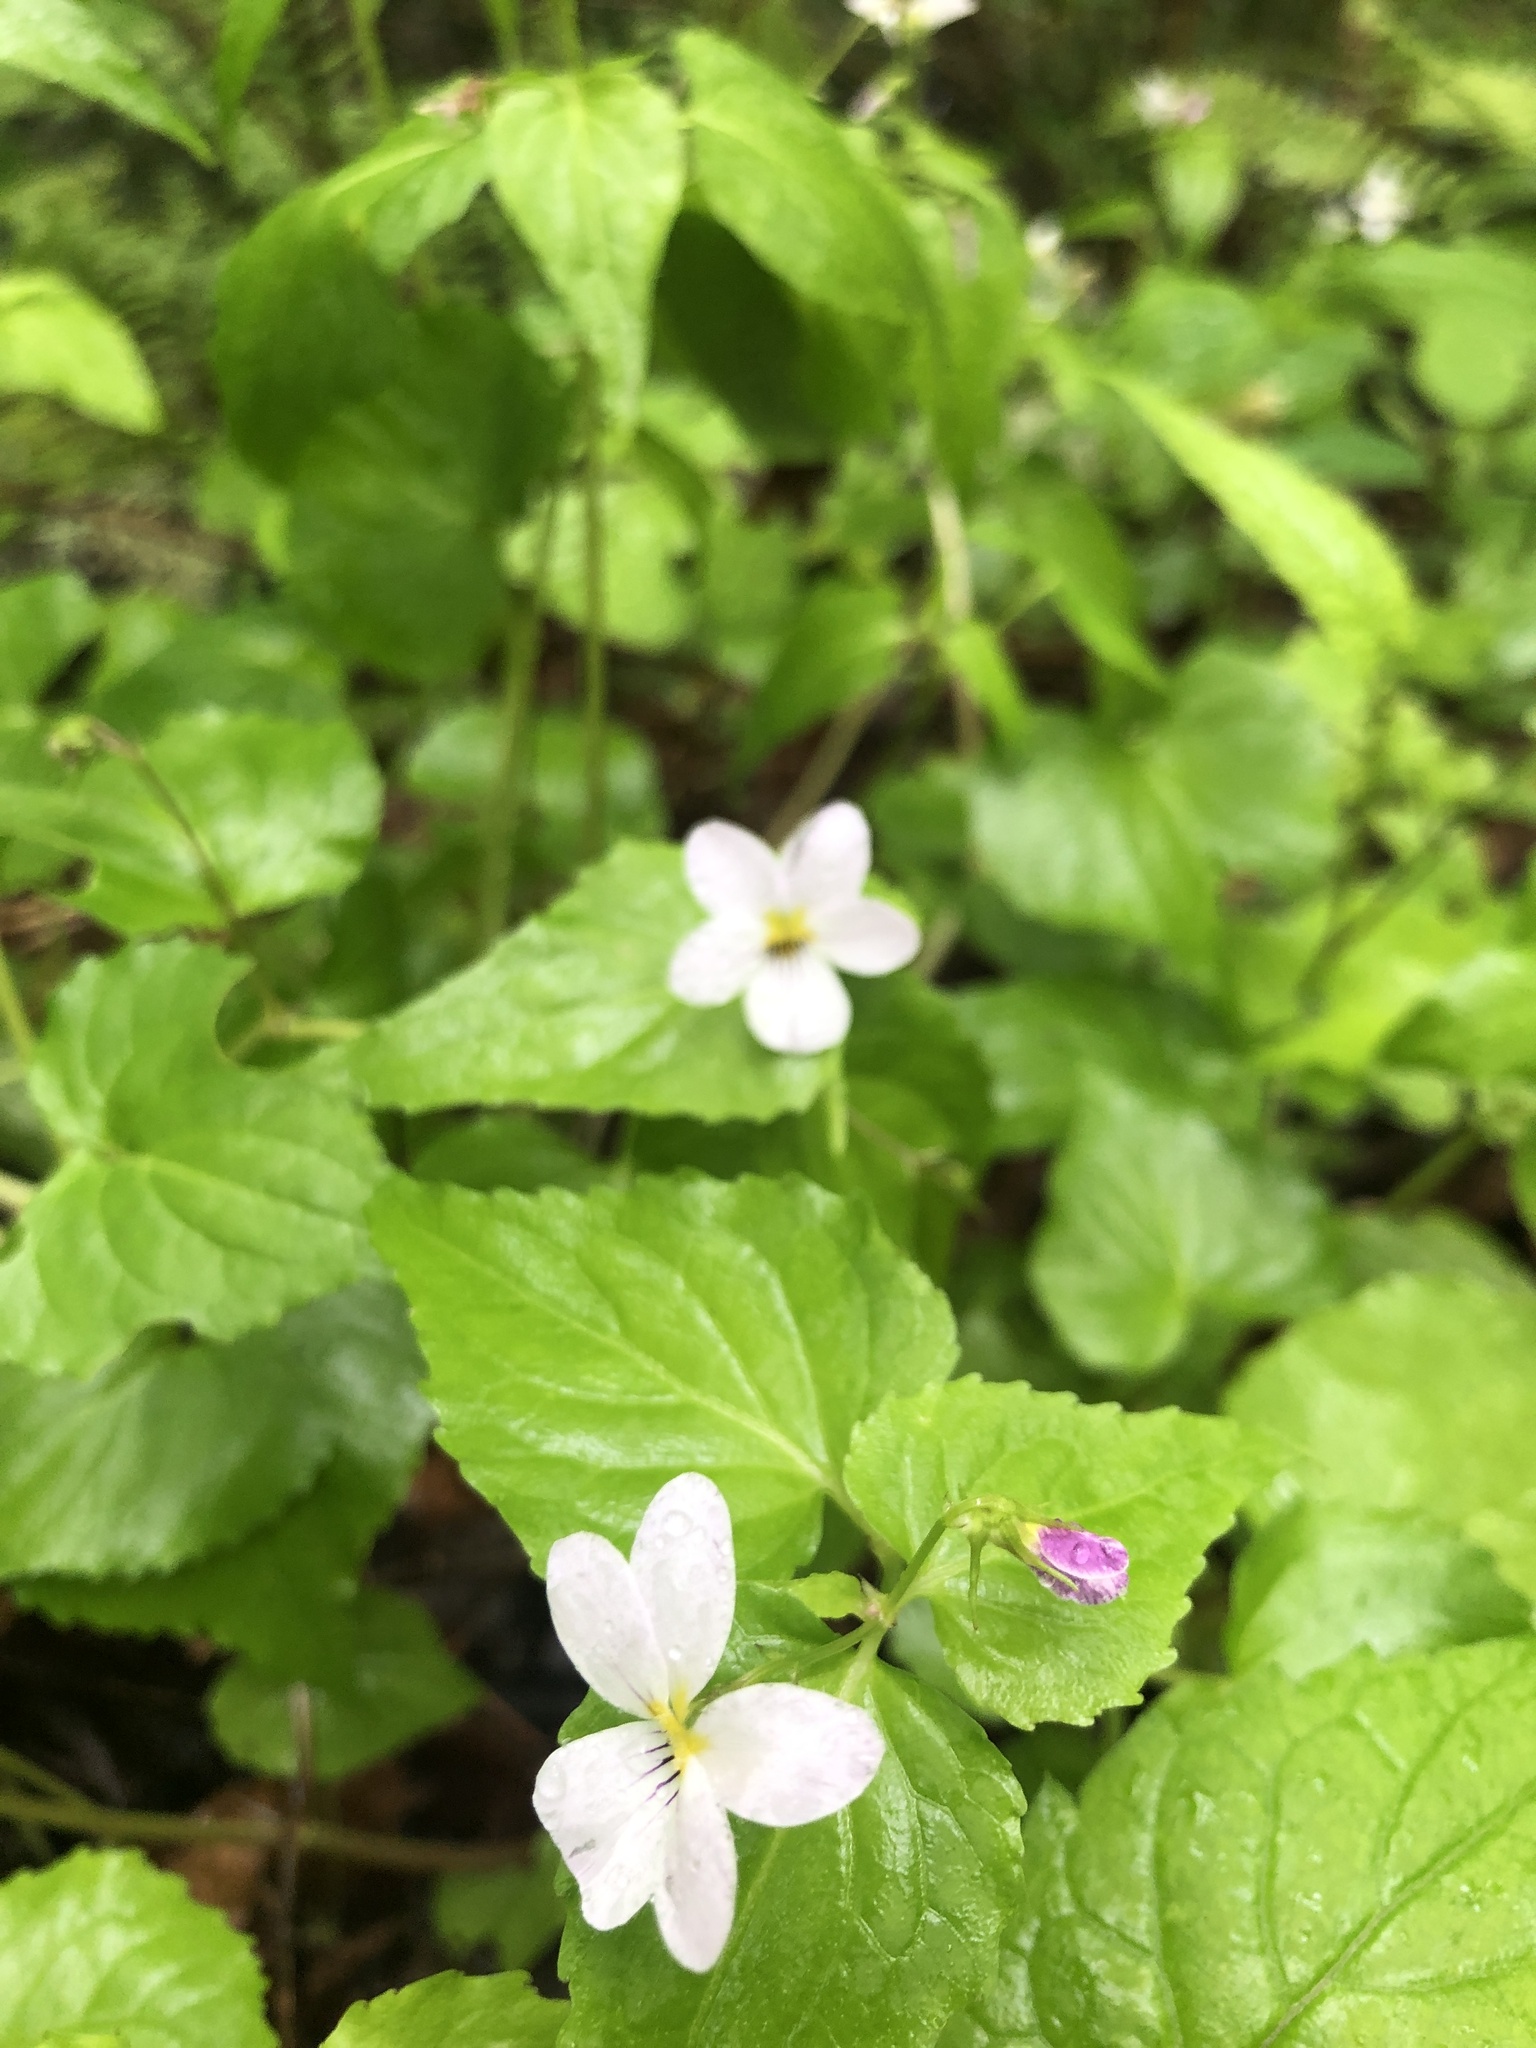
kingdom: Plantae
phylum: Tracheophyta
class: Magnoliopsida
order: Malpighiales
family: Violaceae
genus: Viola
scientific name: Viola canadensis
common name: Canada violet
